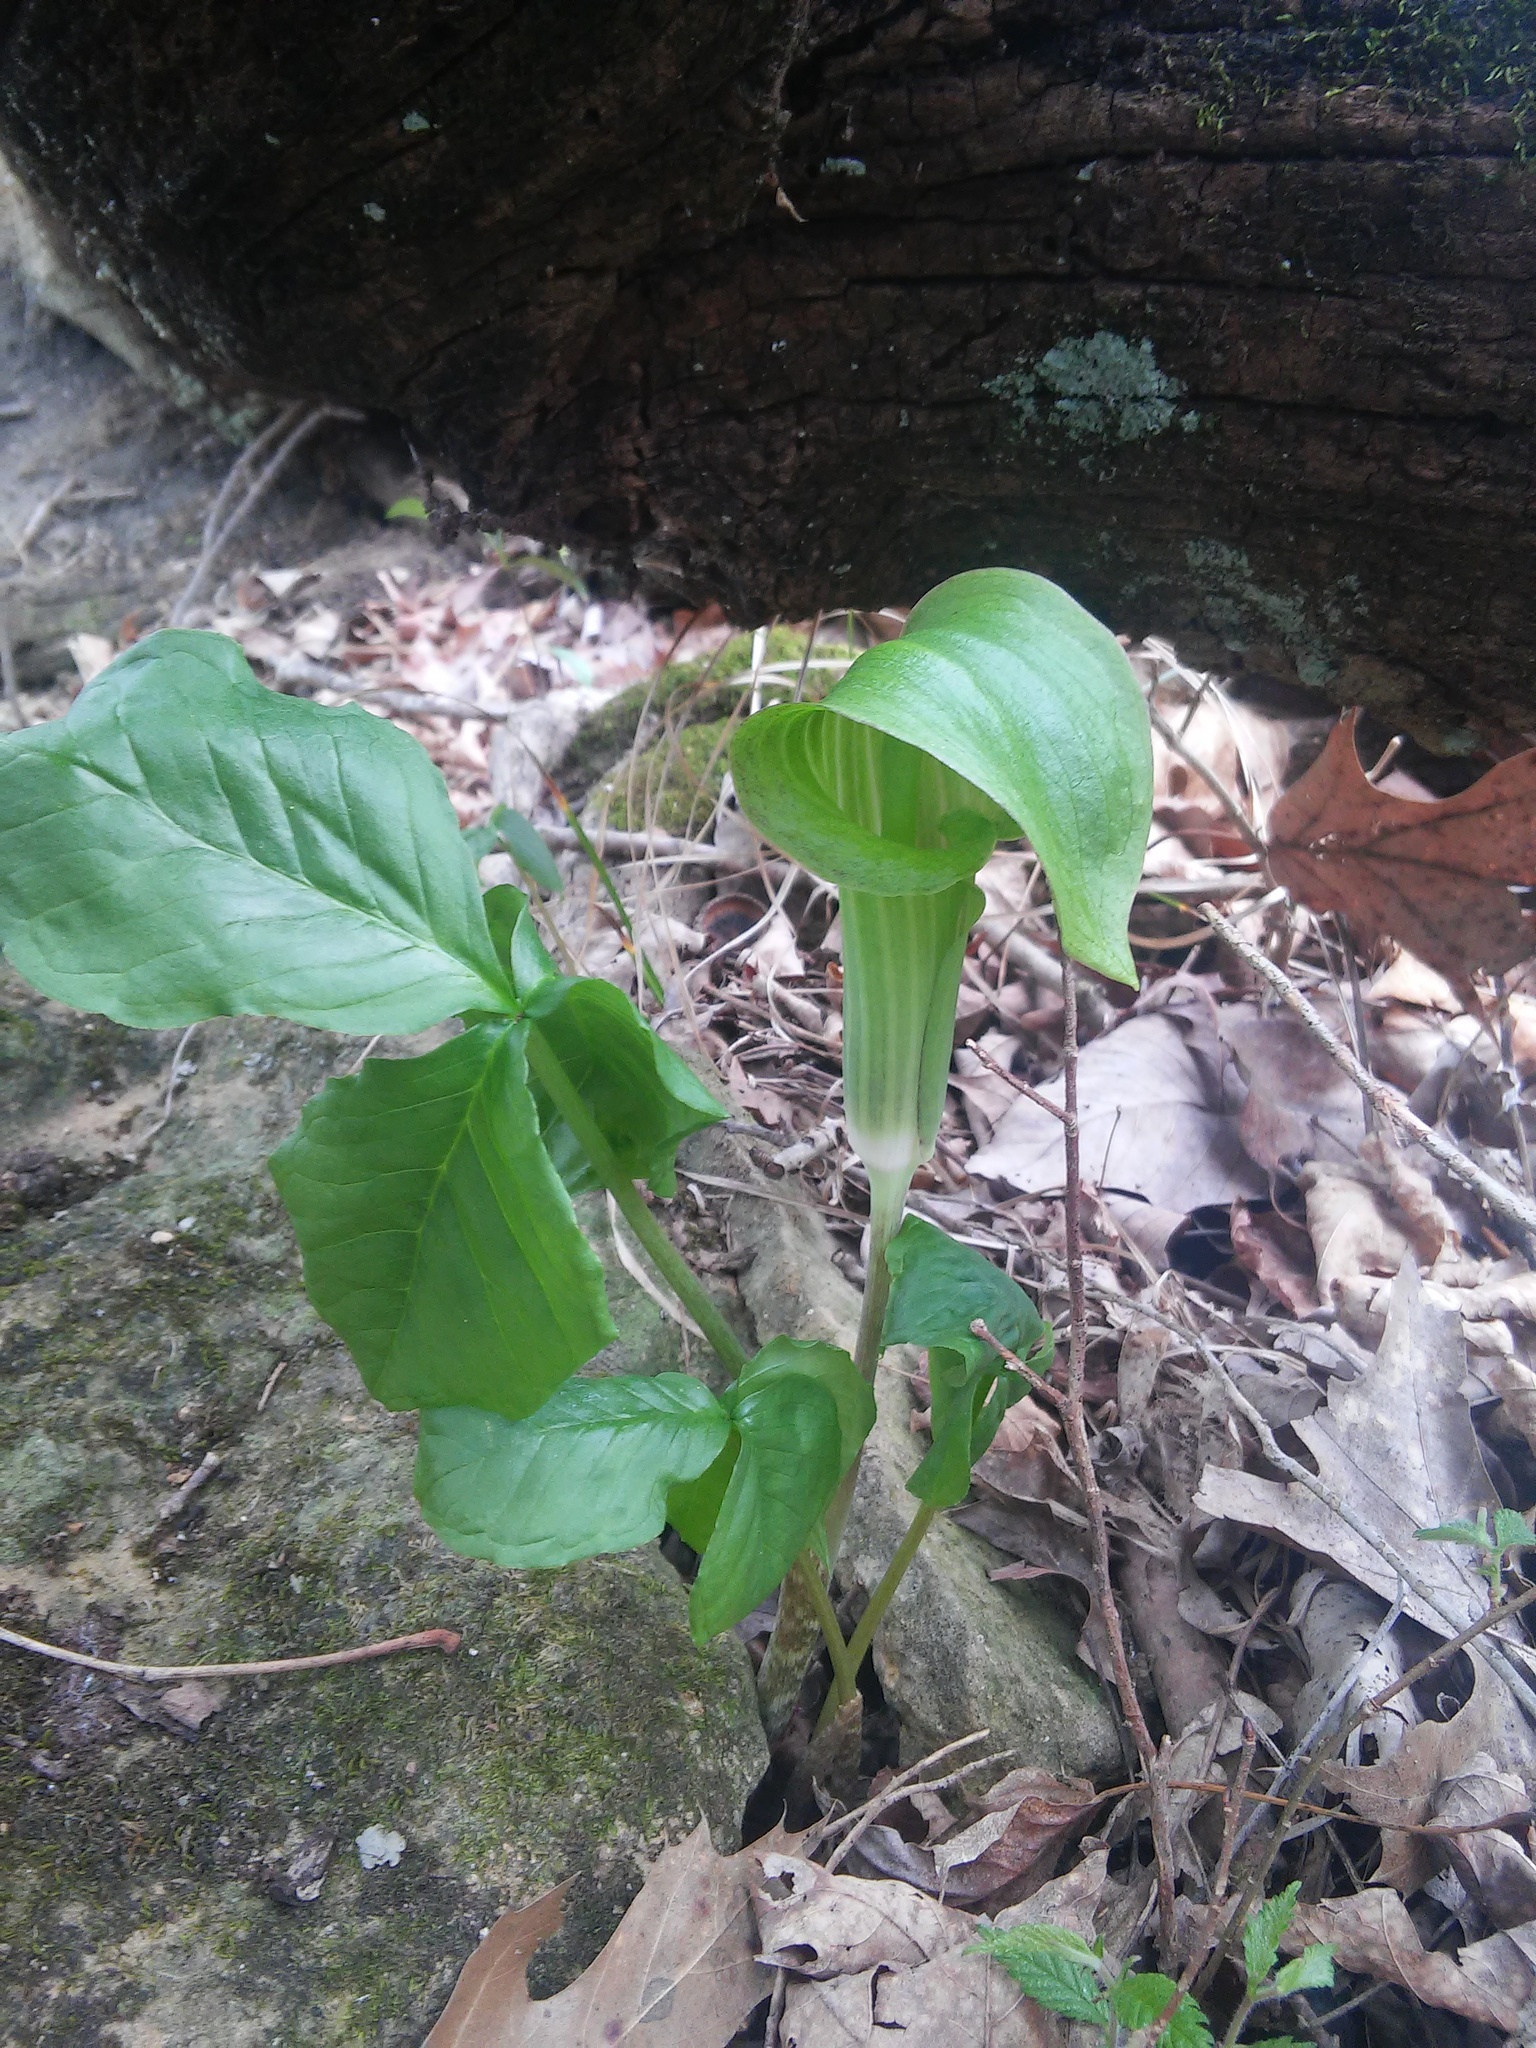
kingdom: Plantae
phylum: Tracheophyta
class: Liliopsida
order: Alismatales
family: Araceae
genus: Arisaema
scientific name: Arisaema triphyllum
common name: Jack-in-the-pulpit
